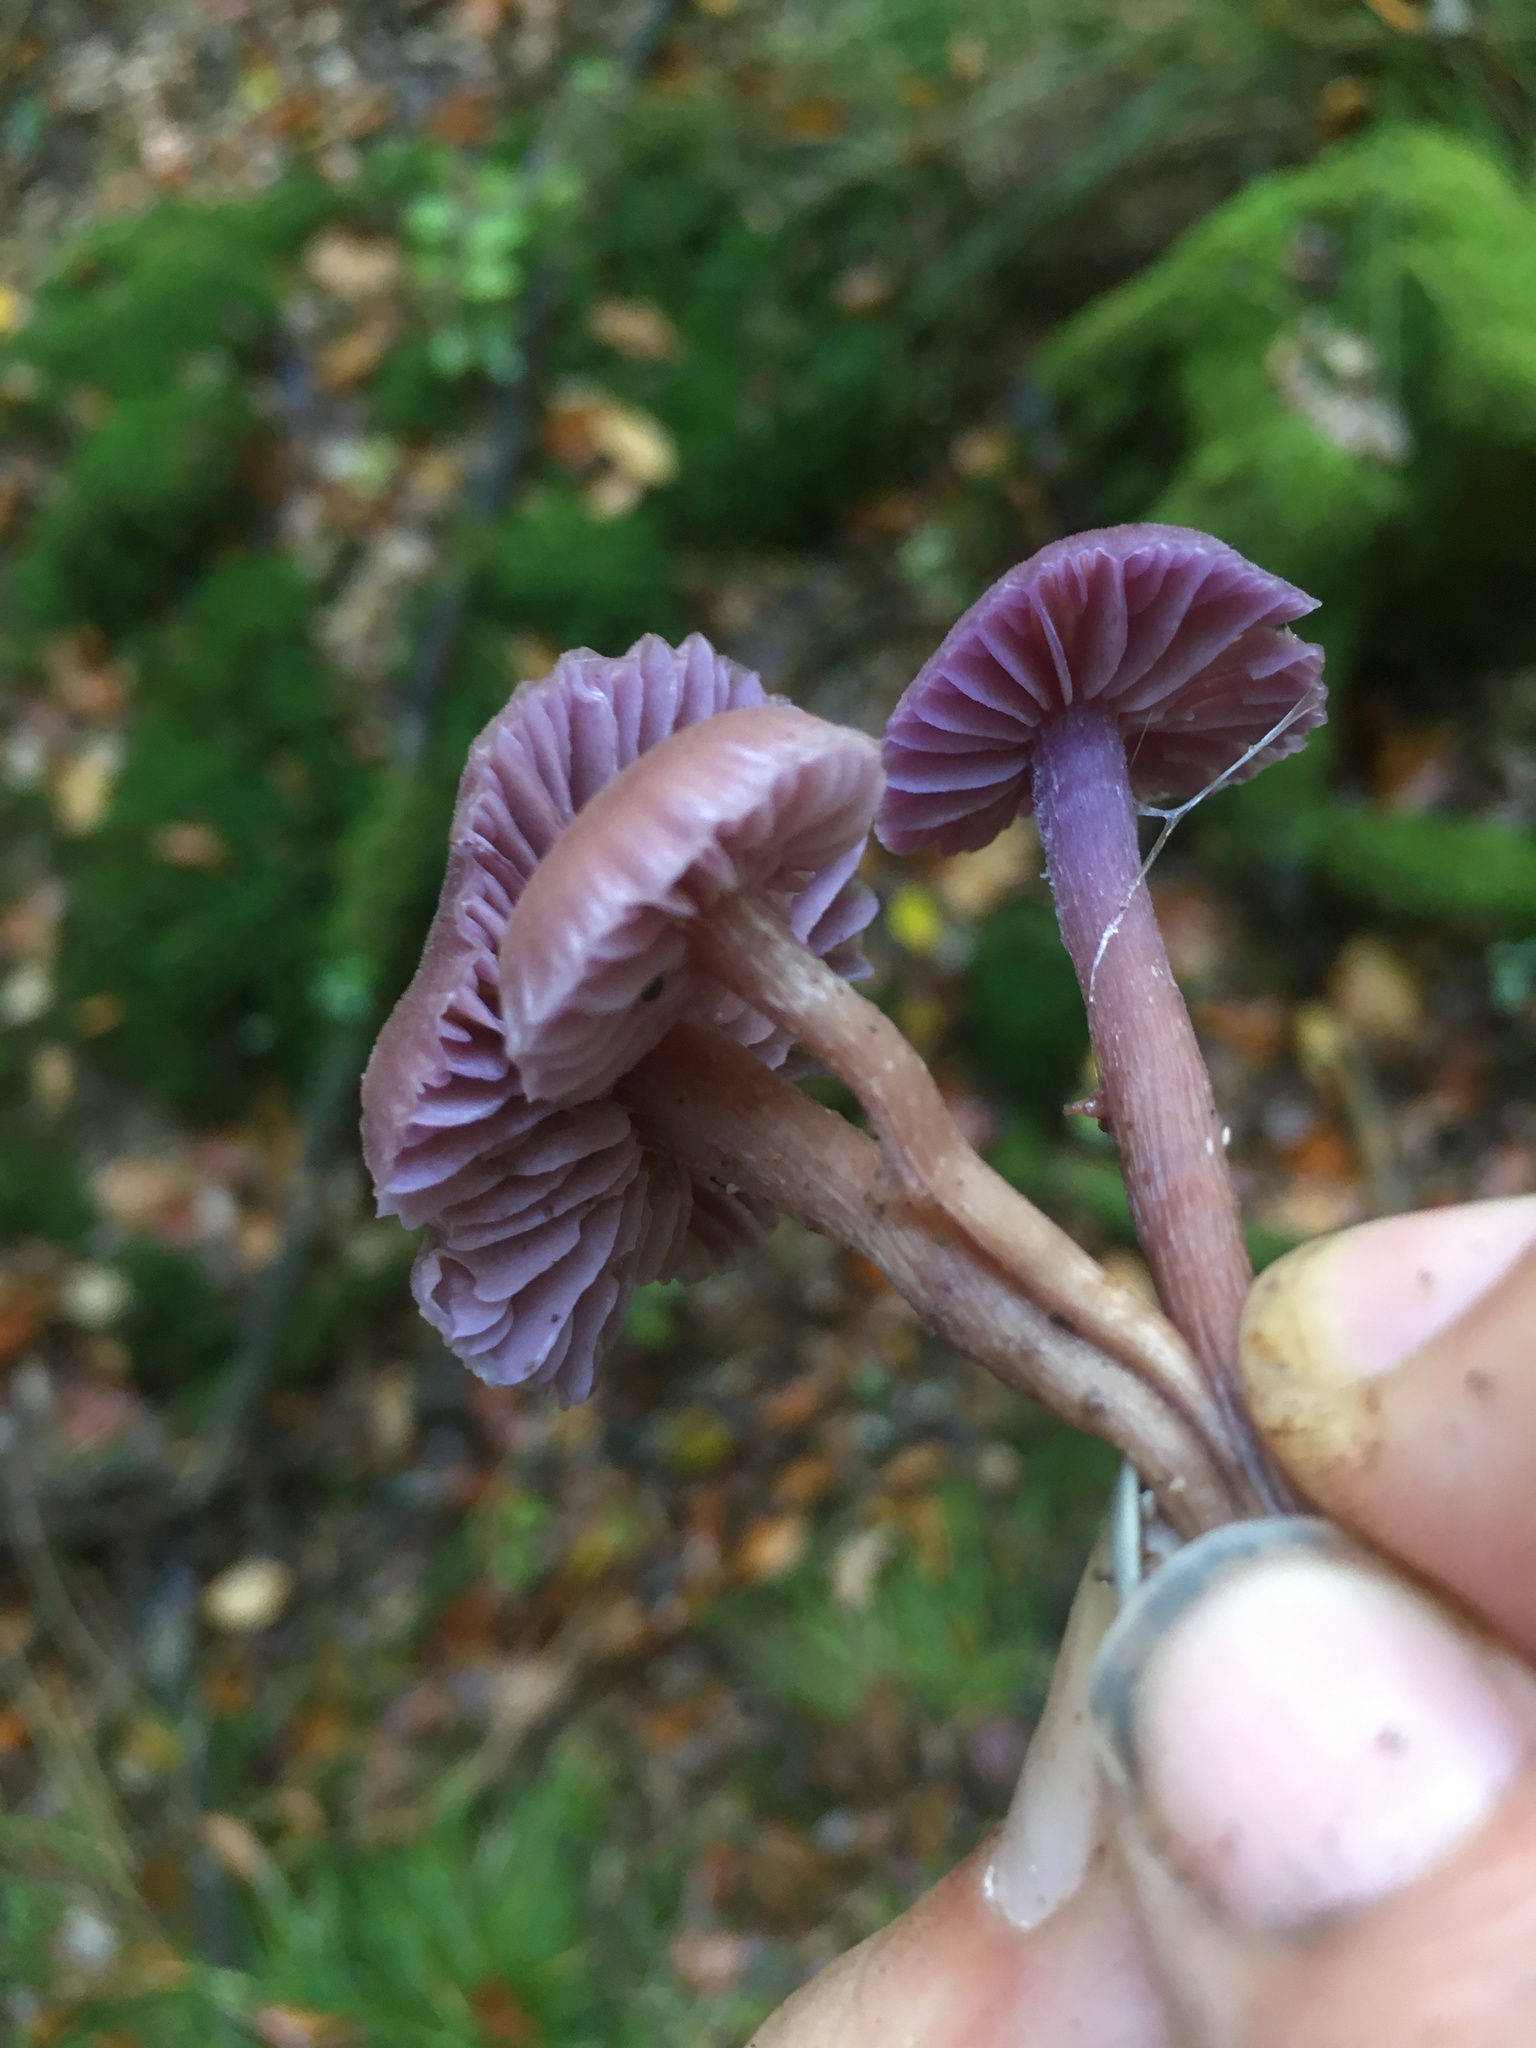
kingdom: Fungi
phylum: Basidiomycota
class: Agaricomycetes
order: Agaricales
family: Hydnangiaceae
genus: Laccaria
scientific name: Laccaria amethystina
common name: Amethyst deceiver
